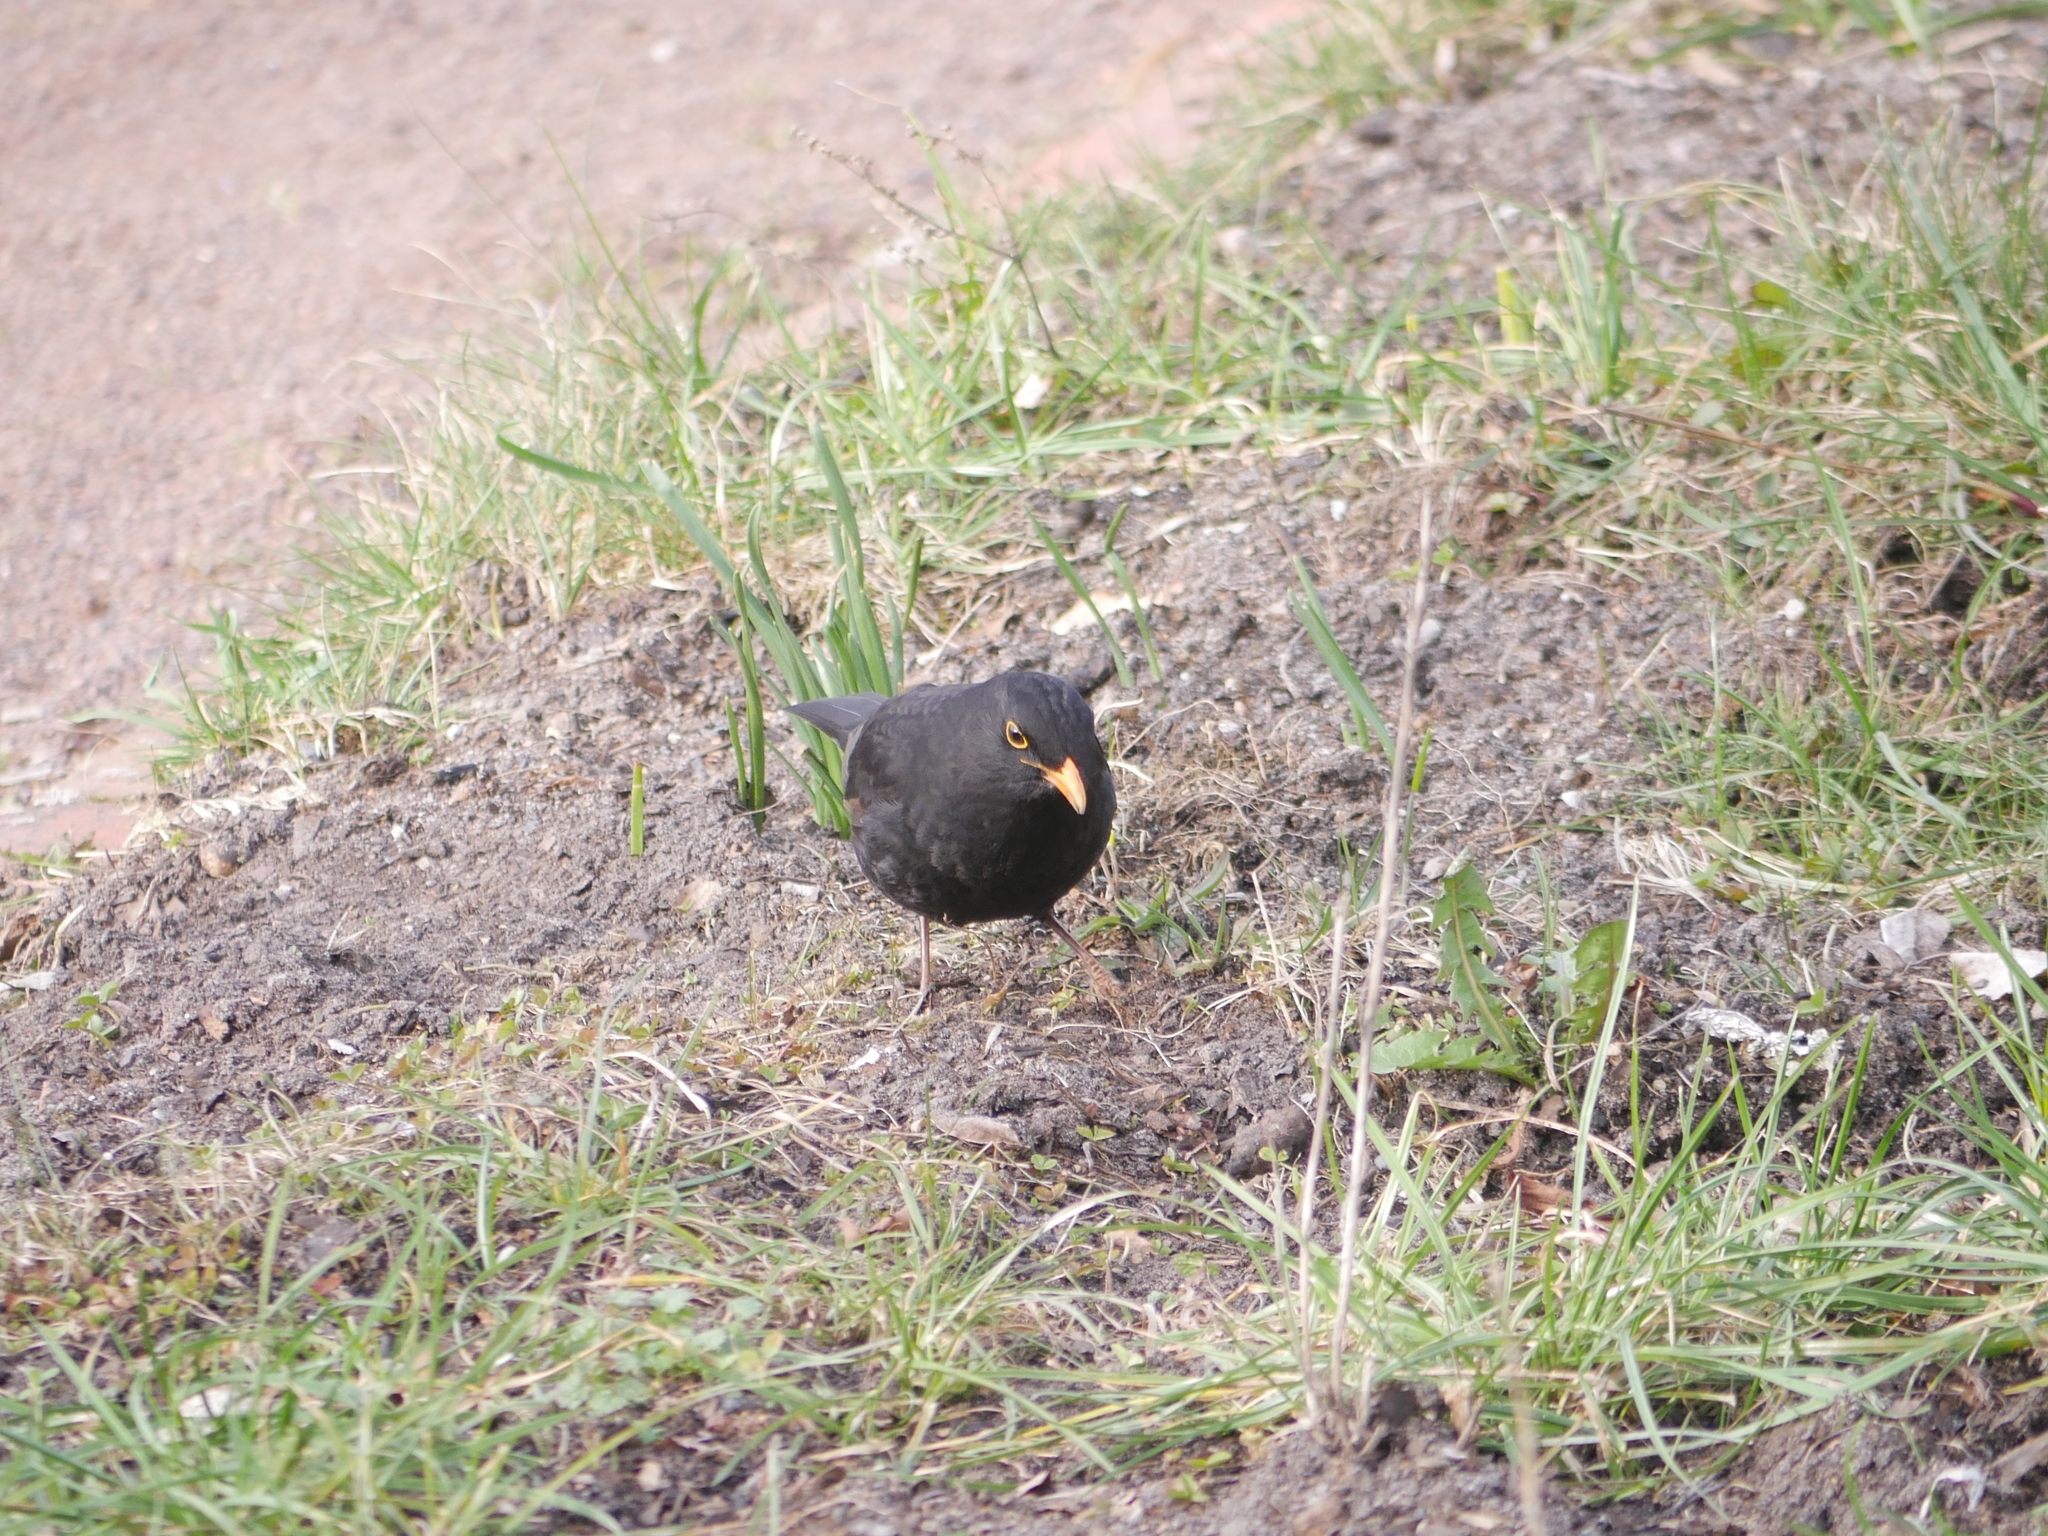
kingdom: Animalia
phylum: Chordata
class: Aves
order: Passeriformes
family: Turdidae
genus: Turdus
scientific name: Turdus merula
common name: Common blackbird
